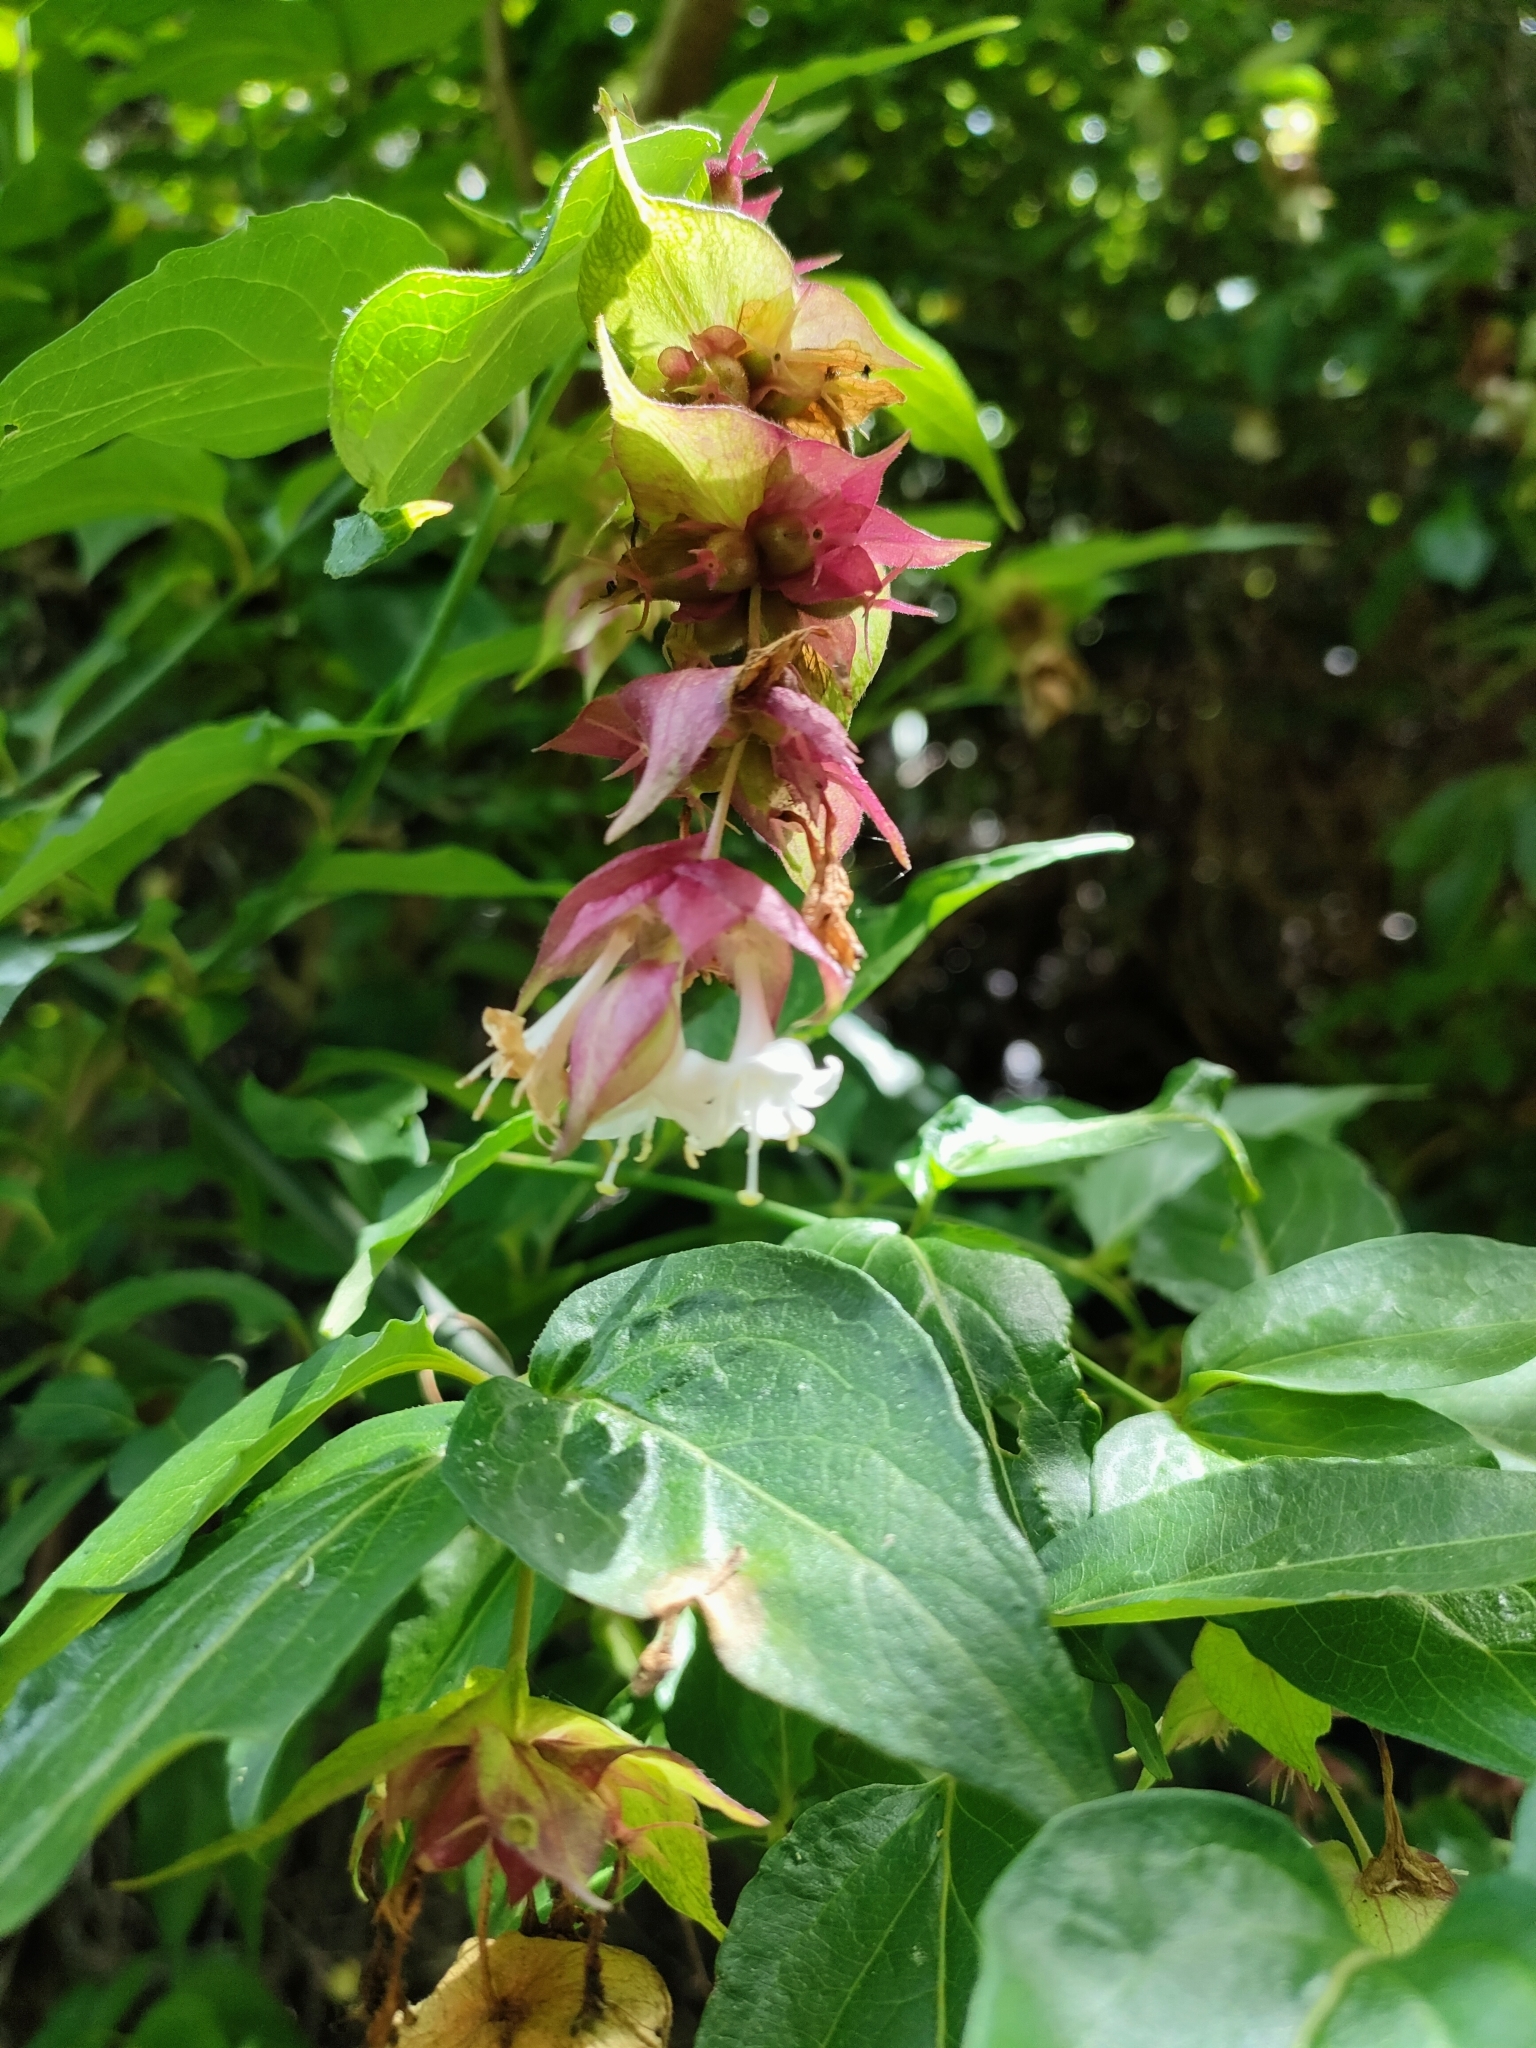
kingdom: Plantae
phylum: Tracheophyta
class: Magnoliopsida
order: Dipsacales
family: Caprifoliaceae
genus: Leycesteria
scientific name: Leycesteria formosa
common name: Himalayan honeysuckle
